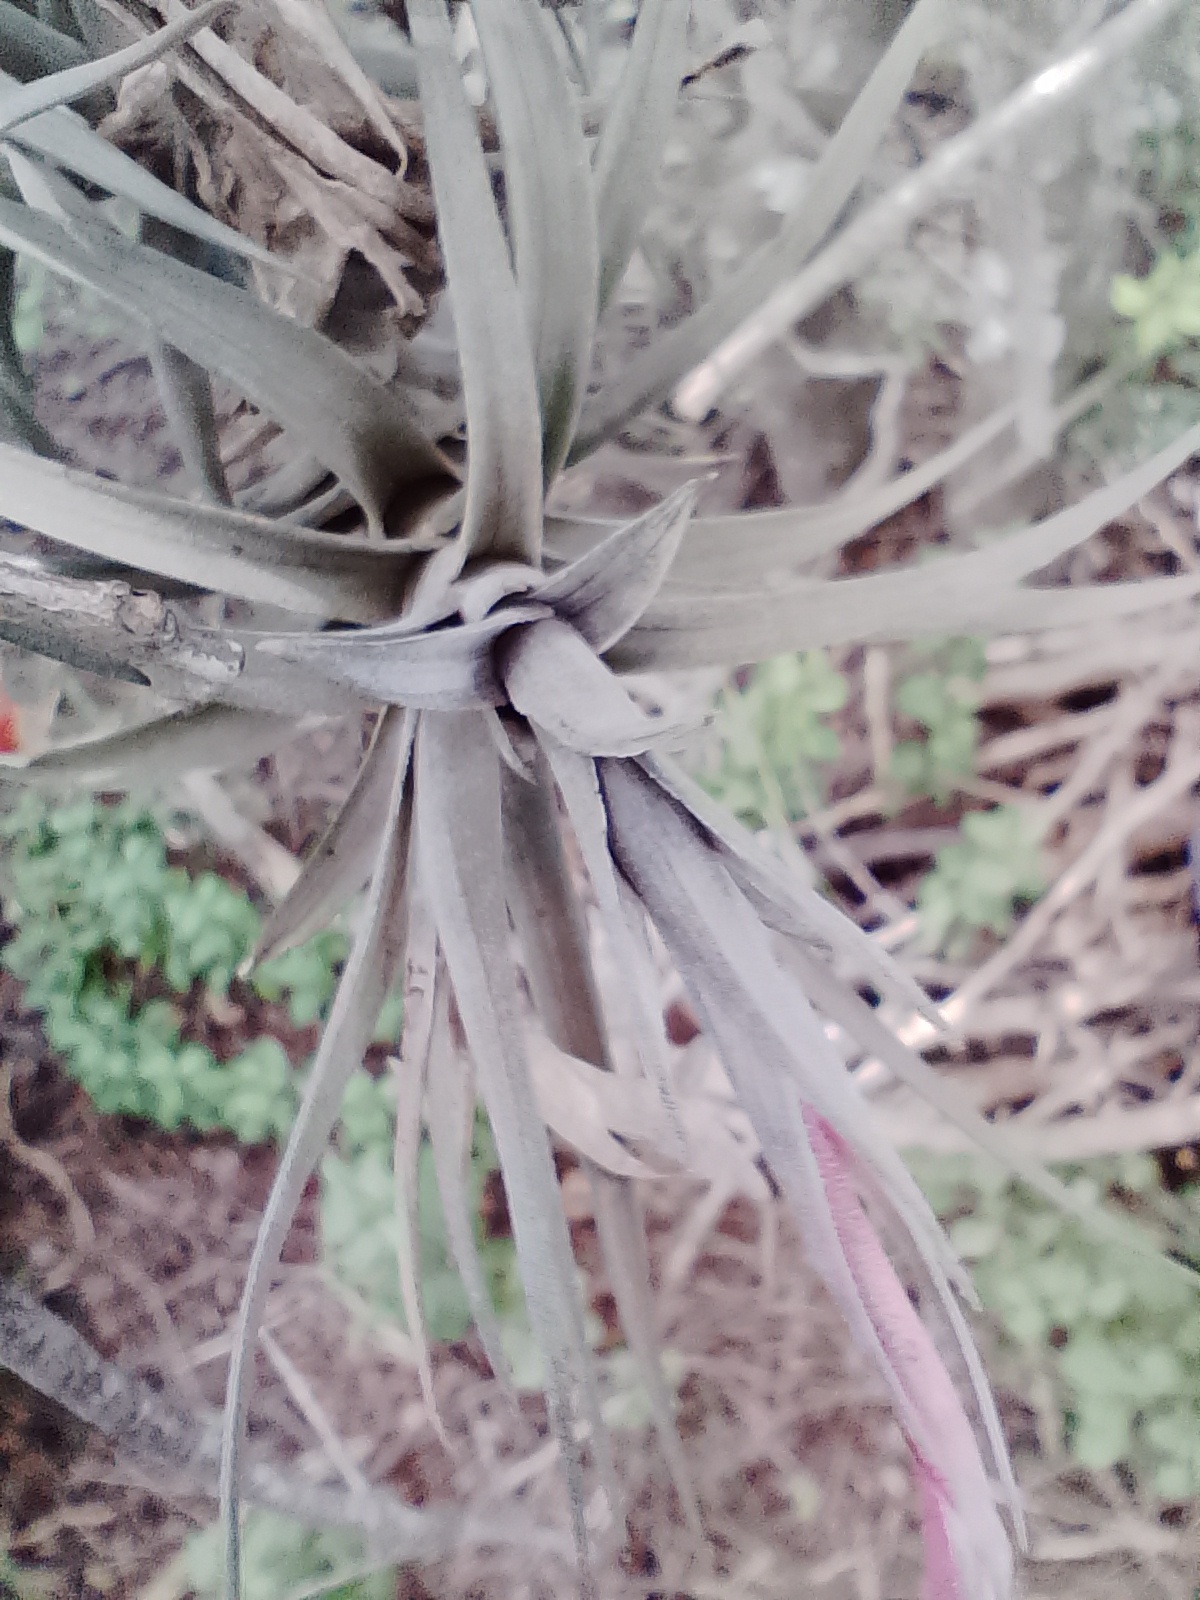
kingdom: Plantae
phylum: Tracheophyta
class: Liliopsida
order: Poales
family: Bromeliaceae
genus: Tillandsia
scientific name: Tillandsia aeranthos
